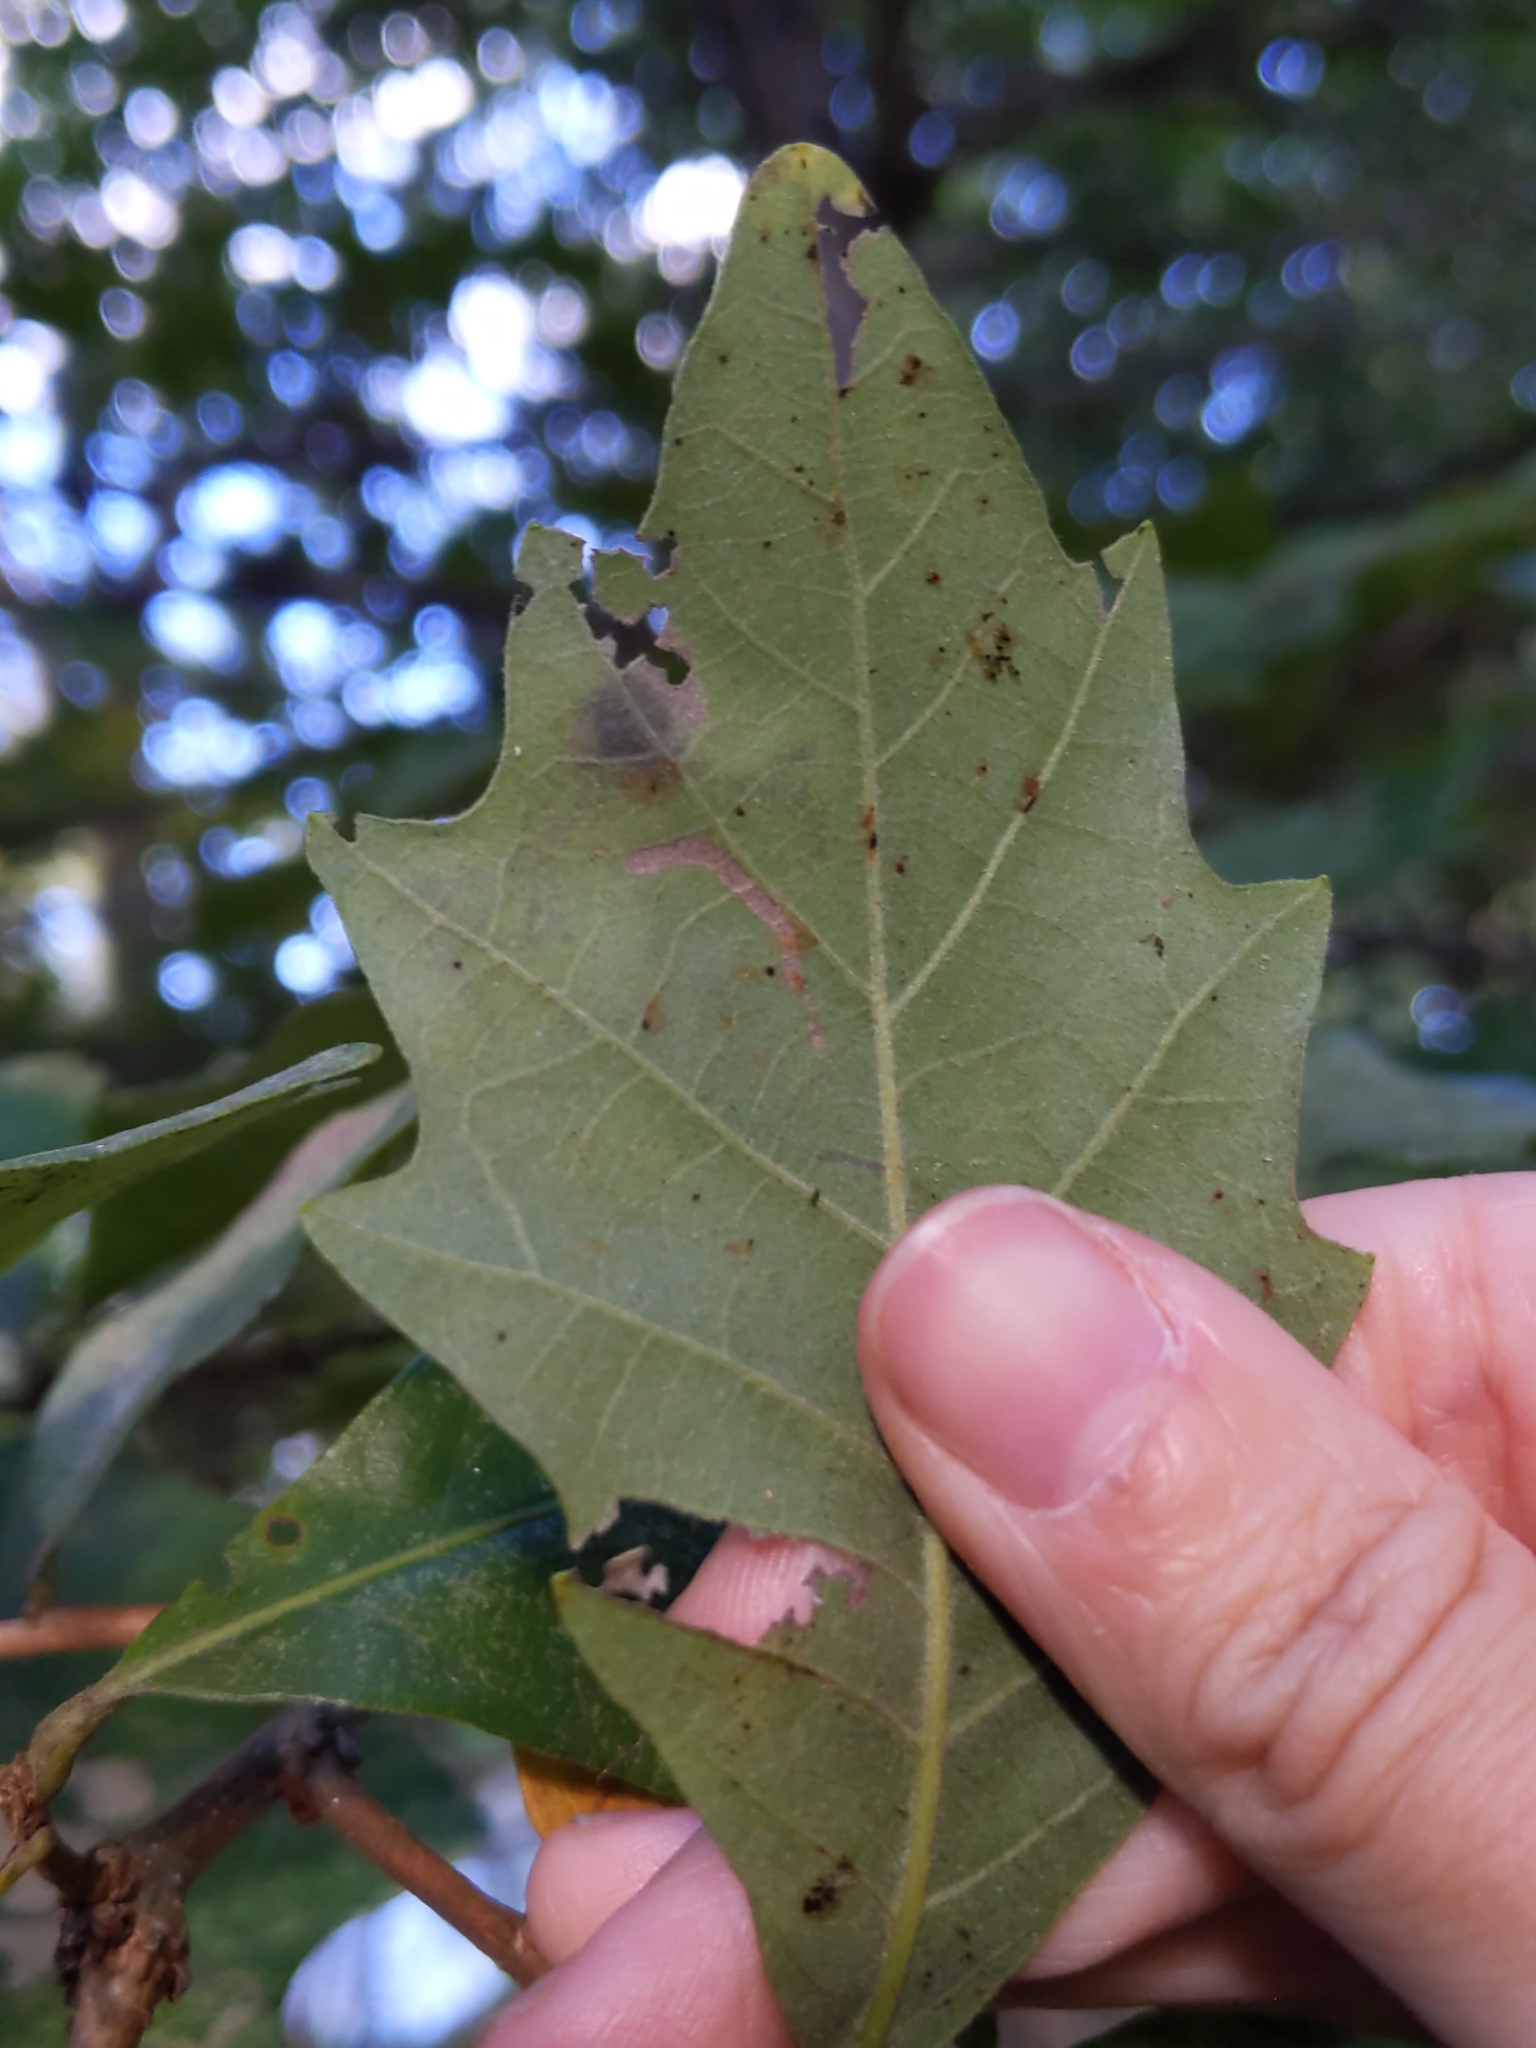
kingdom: Animalia
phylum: Arthropoda
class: Insecta
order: Lepidoptera
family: Gracillariidae
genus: Cameraria
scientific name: Cameraria
